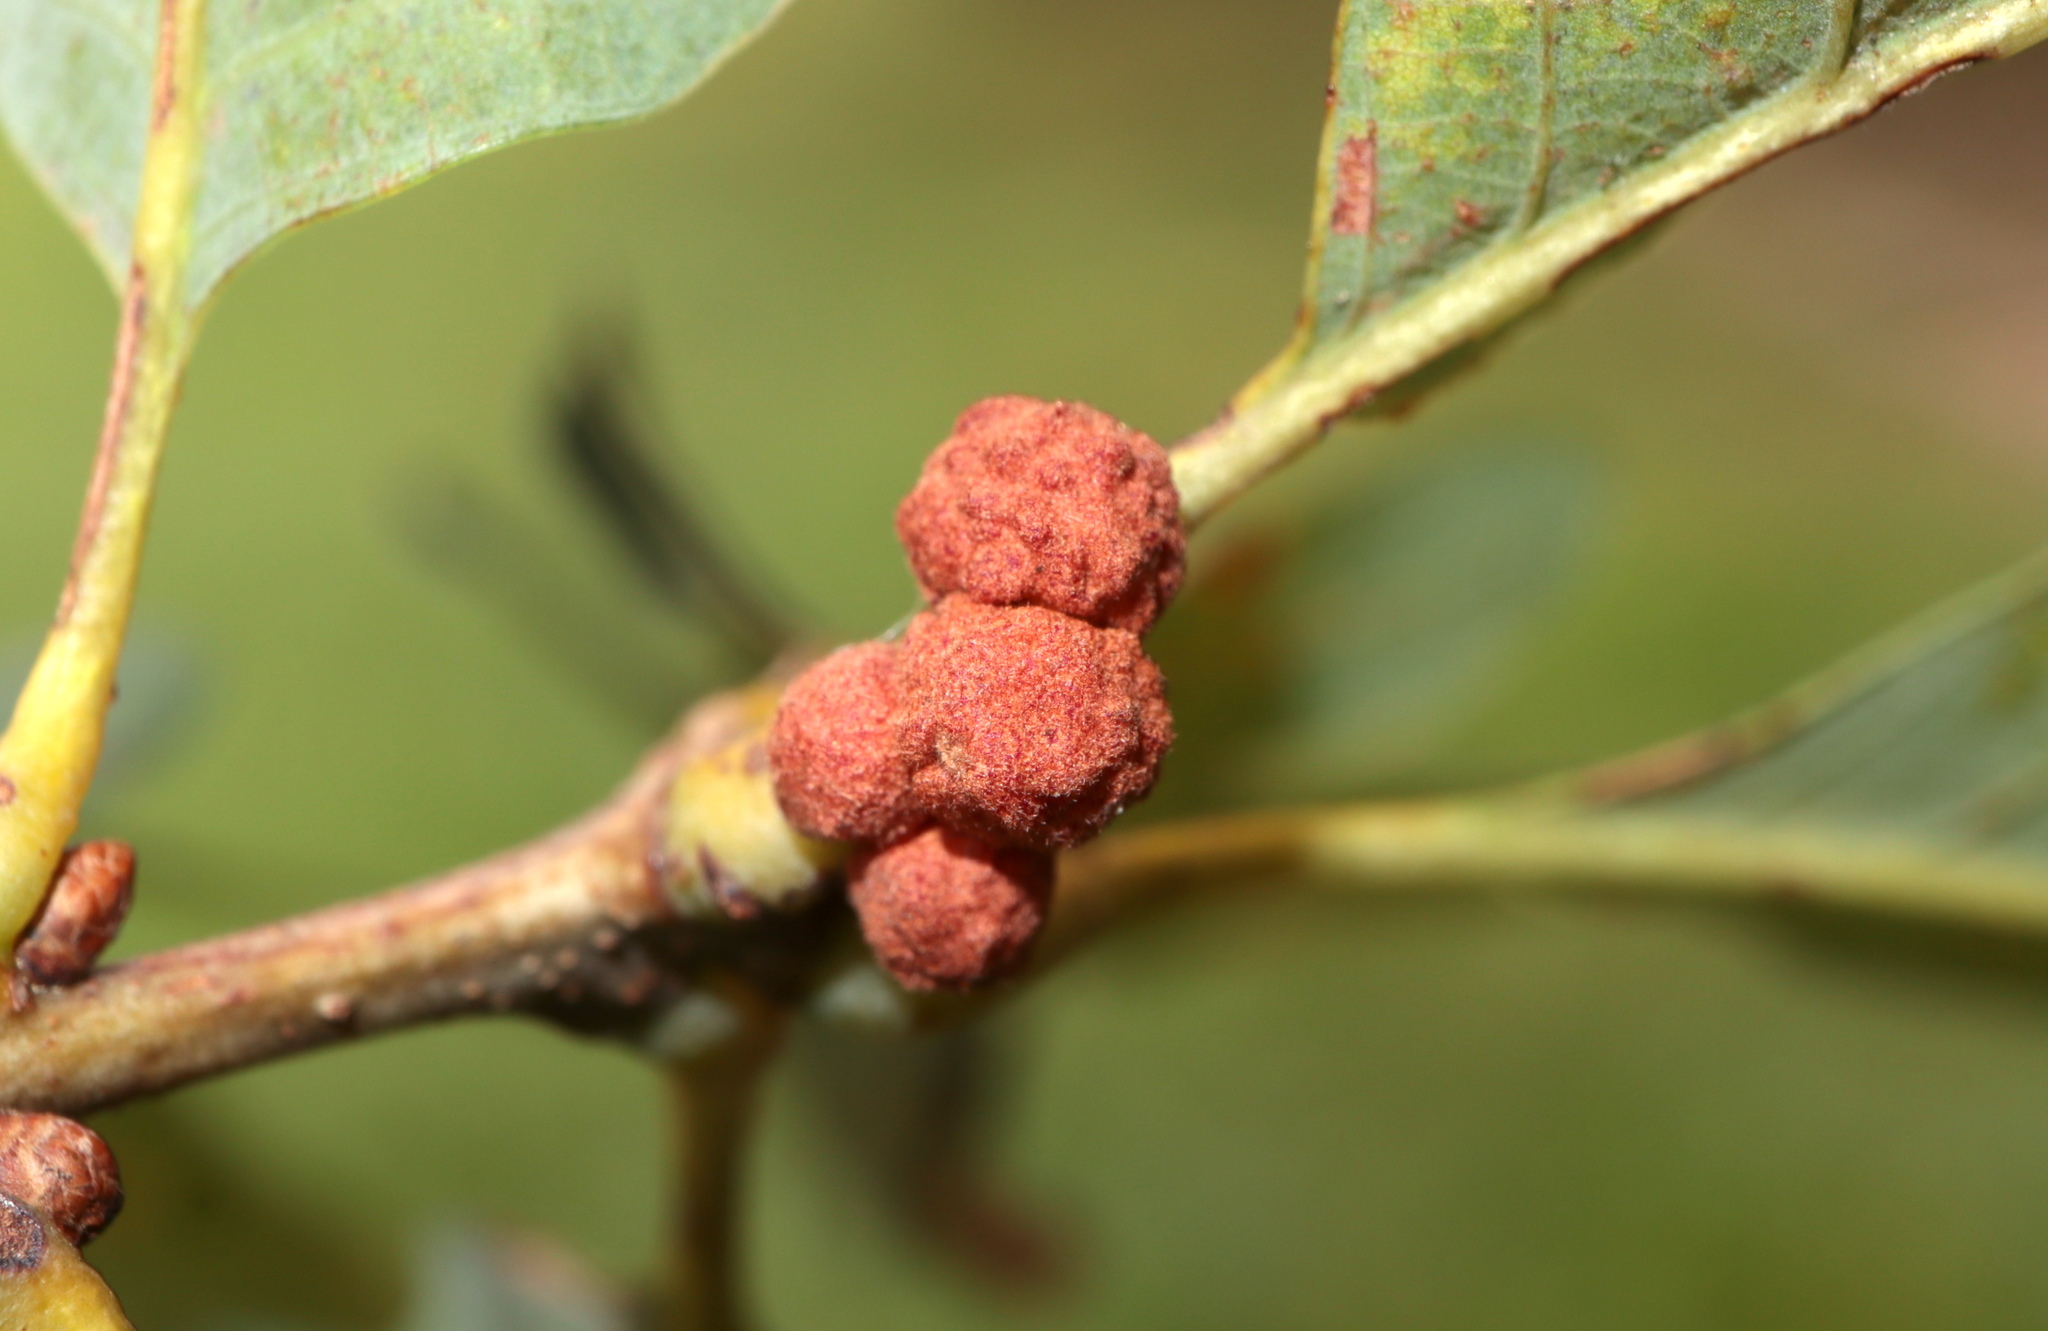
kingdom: Animalia
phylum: Arthropoda
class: Insecta
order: Hymenoptera
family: Cynipidae
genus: Andricus
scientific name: Andricus
